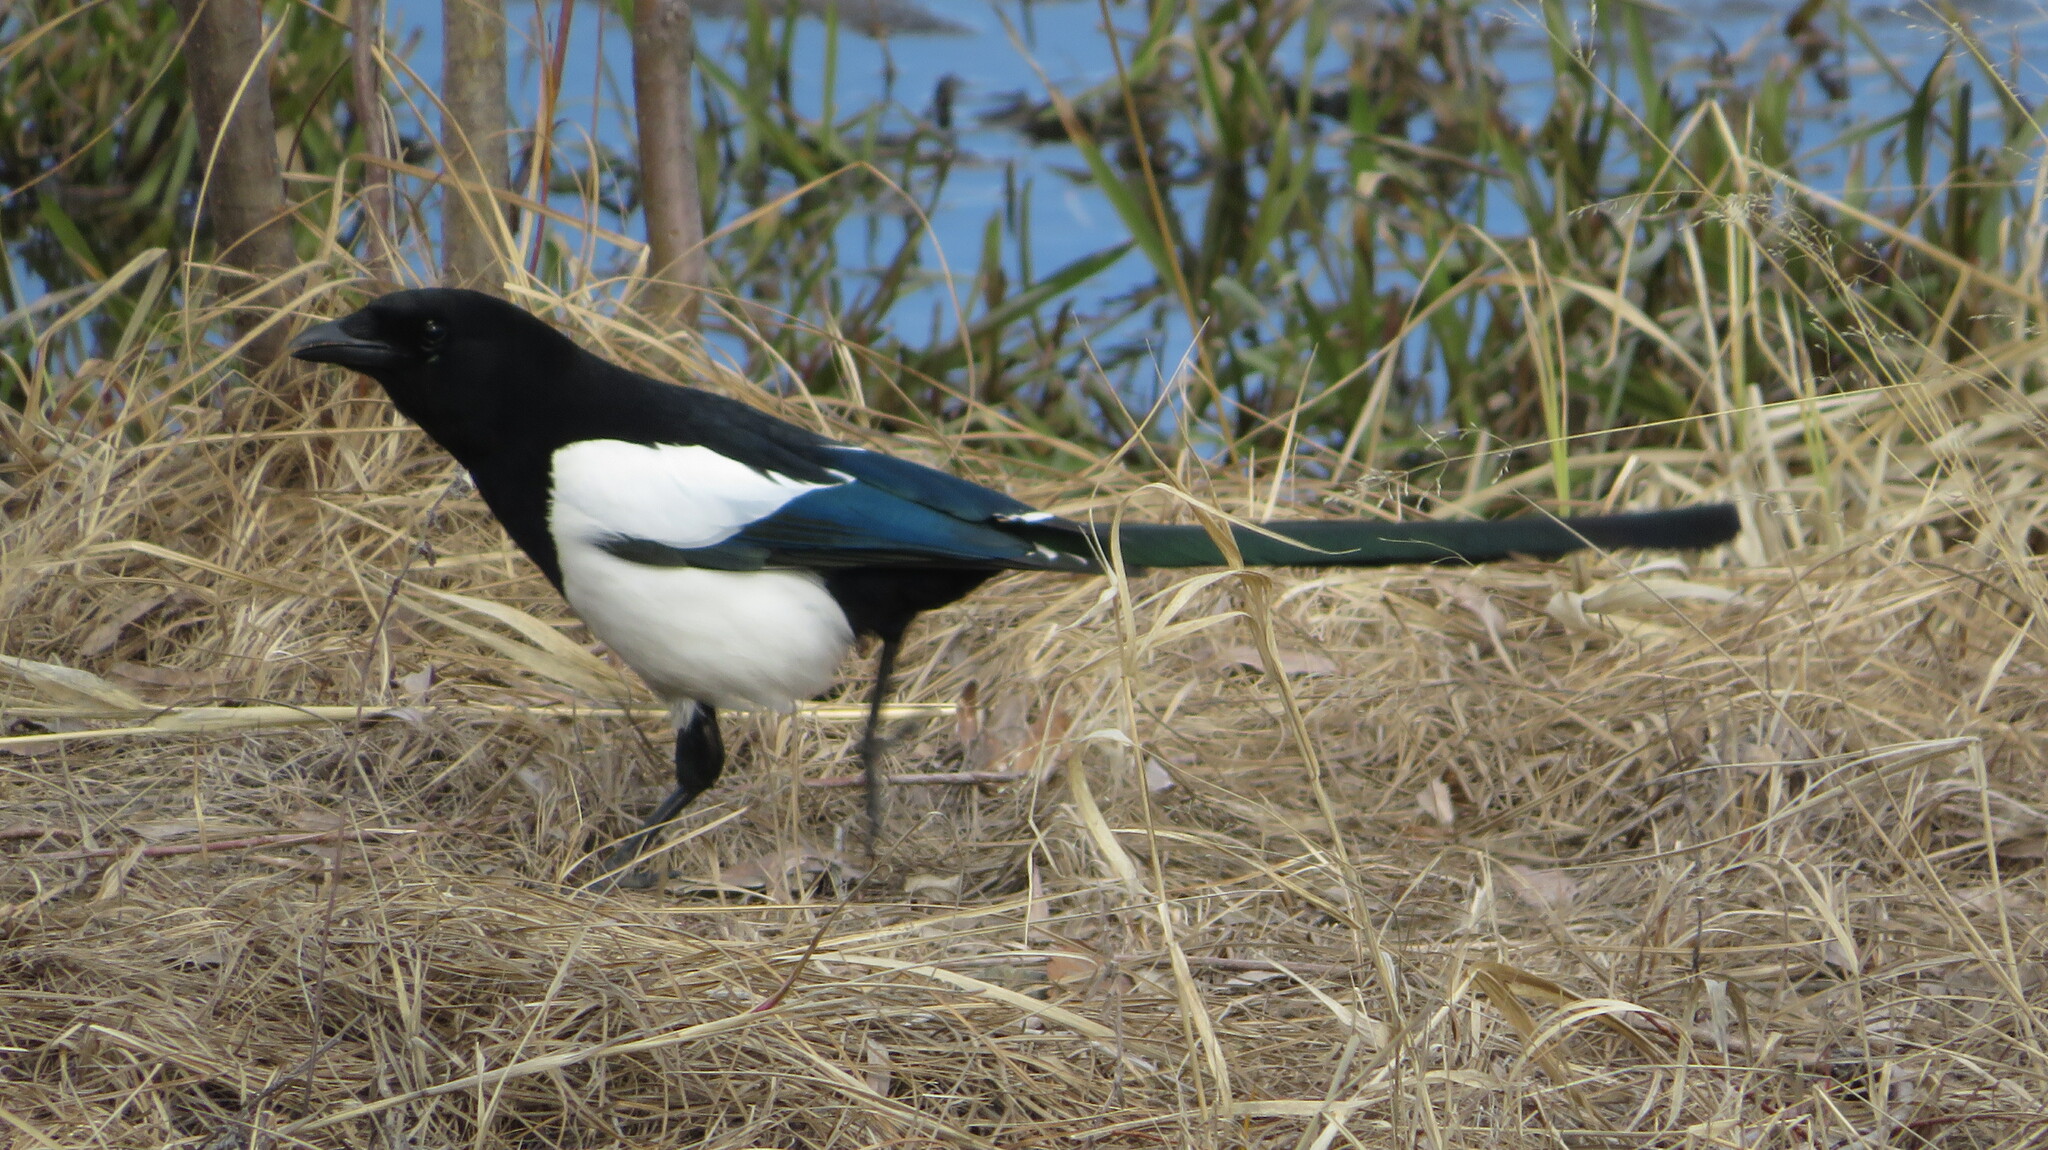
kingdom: Animalia
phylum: Chordata
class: Aves
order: Passeriformes
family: Corvidae
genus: Pica
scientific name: Pica pica
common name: Eurasian magpie
